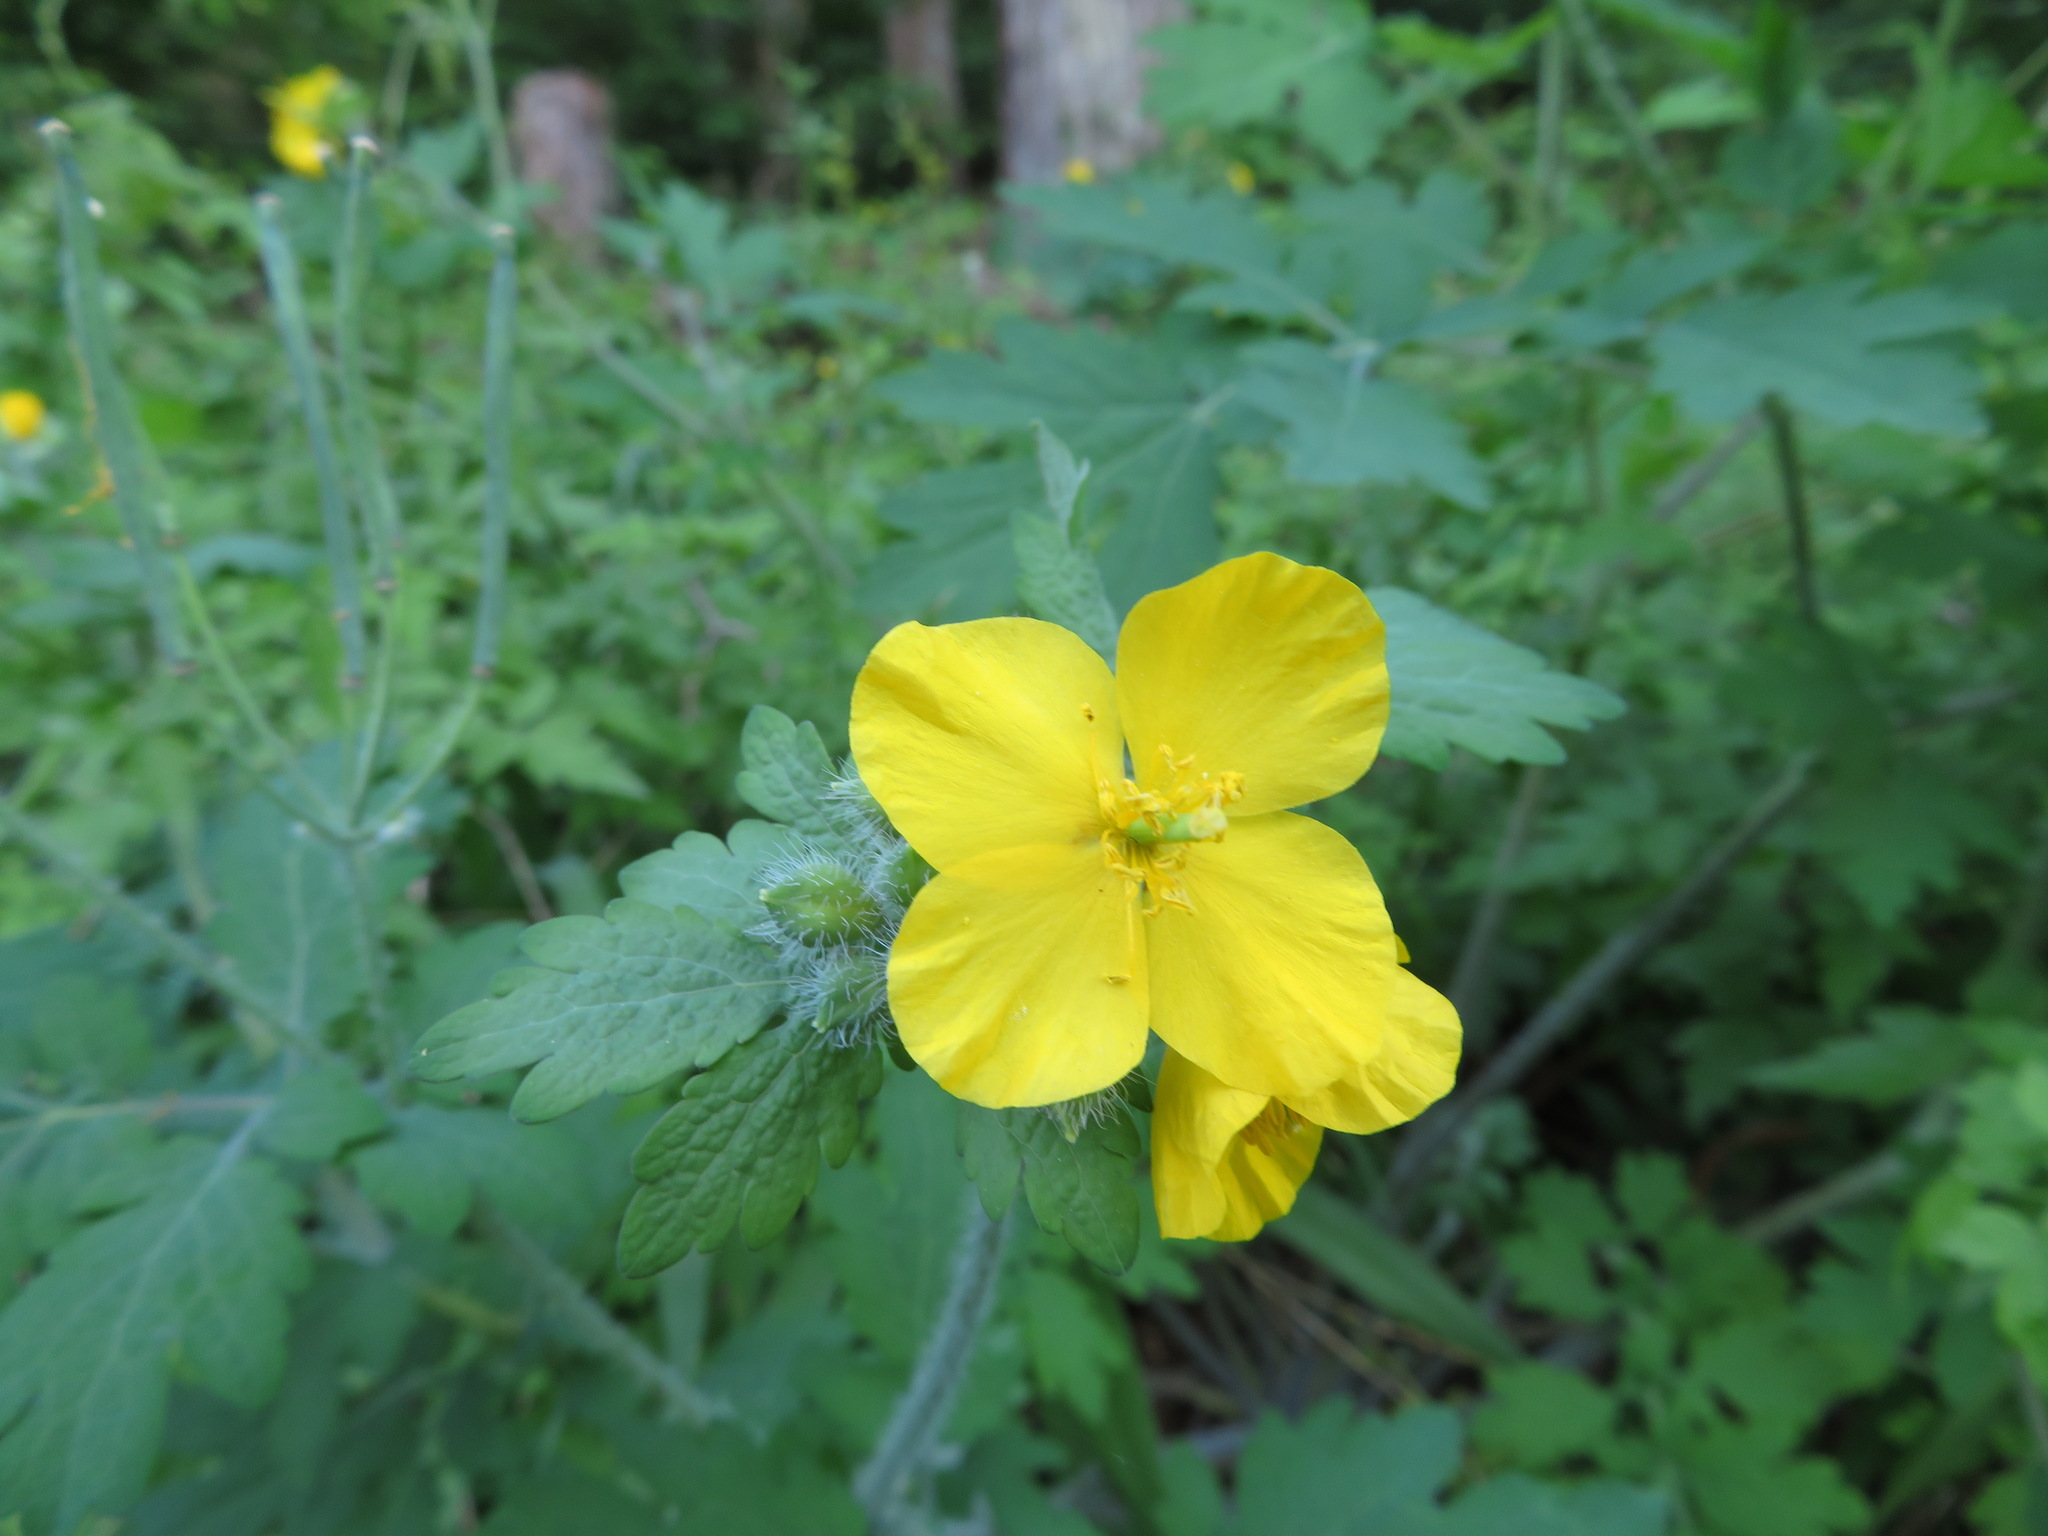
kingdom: Plantae
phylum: Tracheophyta
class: Magnoliopsida
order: Ranunculales
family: Papaveraceae
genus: Chelidonium
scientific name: Chelidonium majus
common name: Greater celandine
